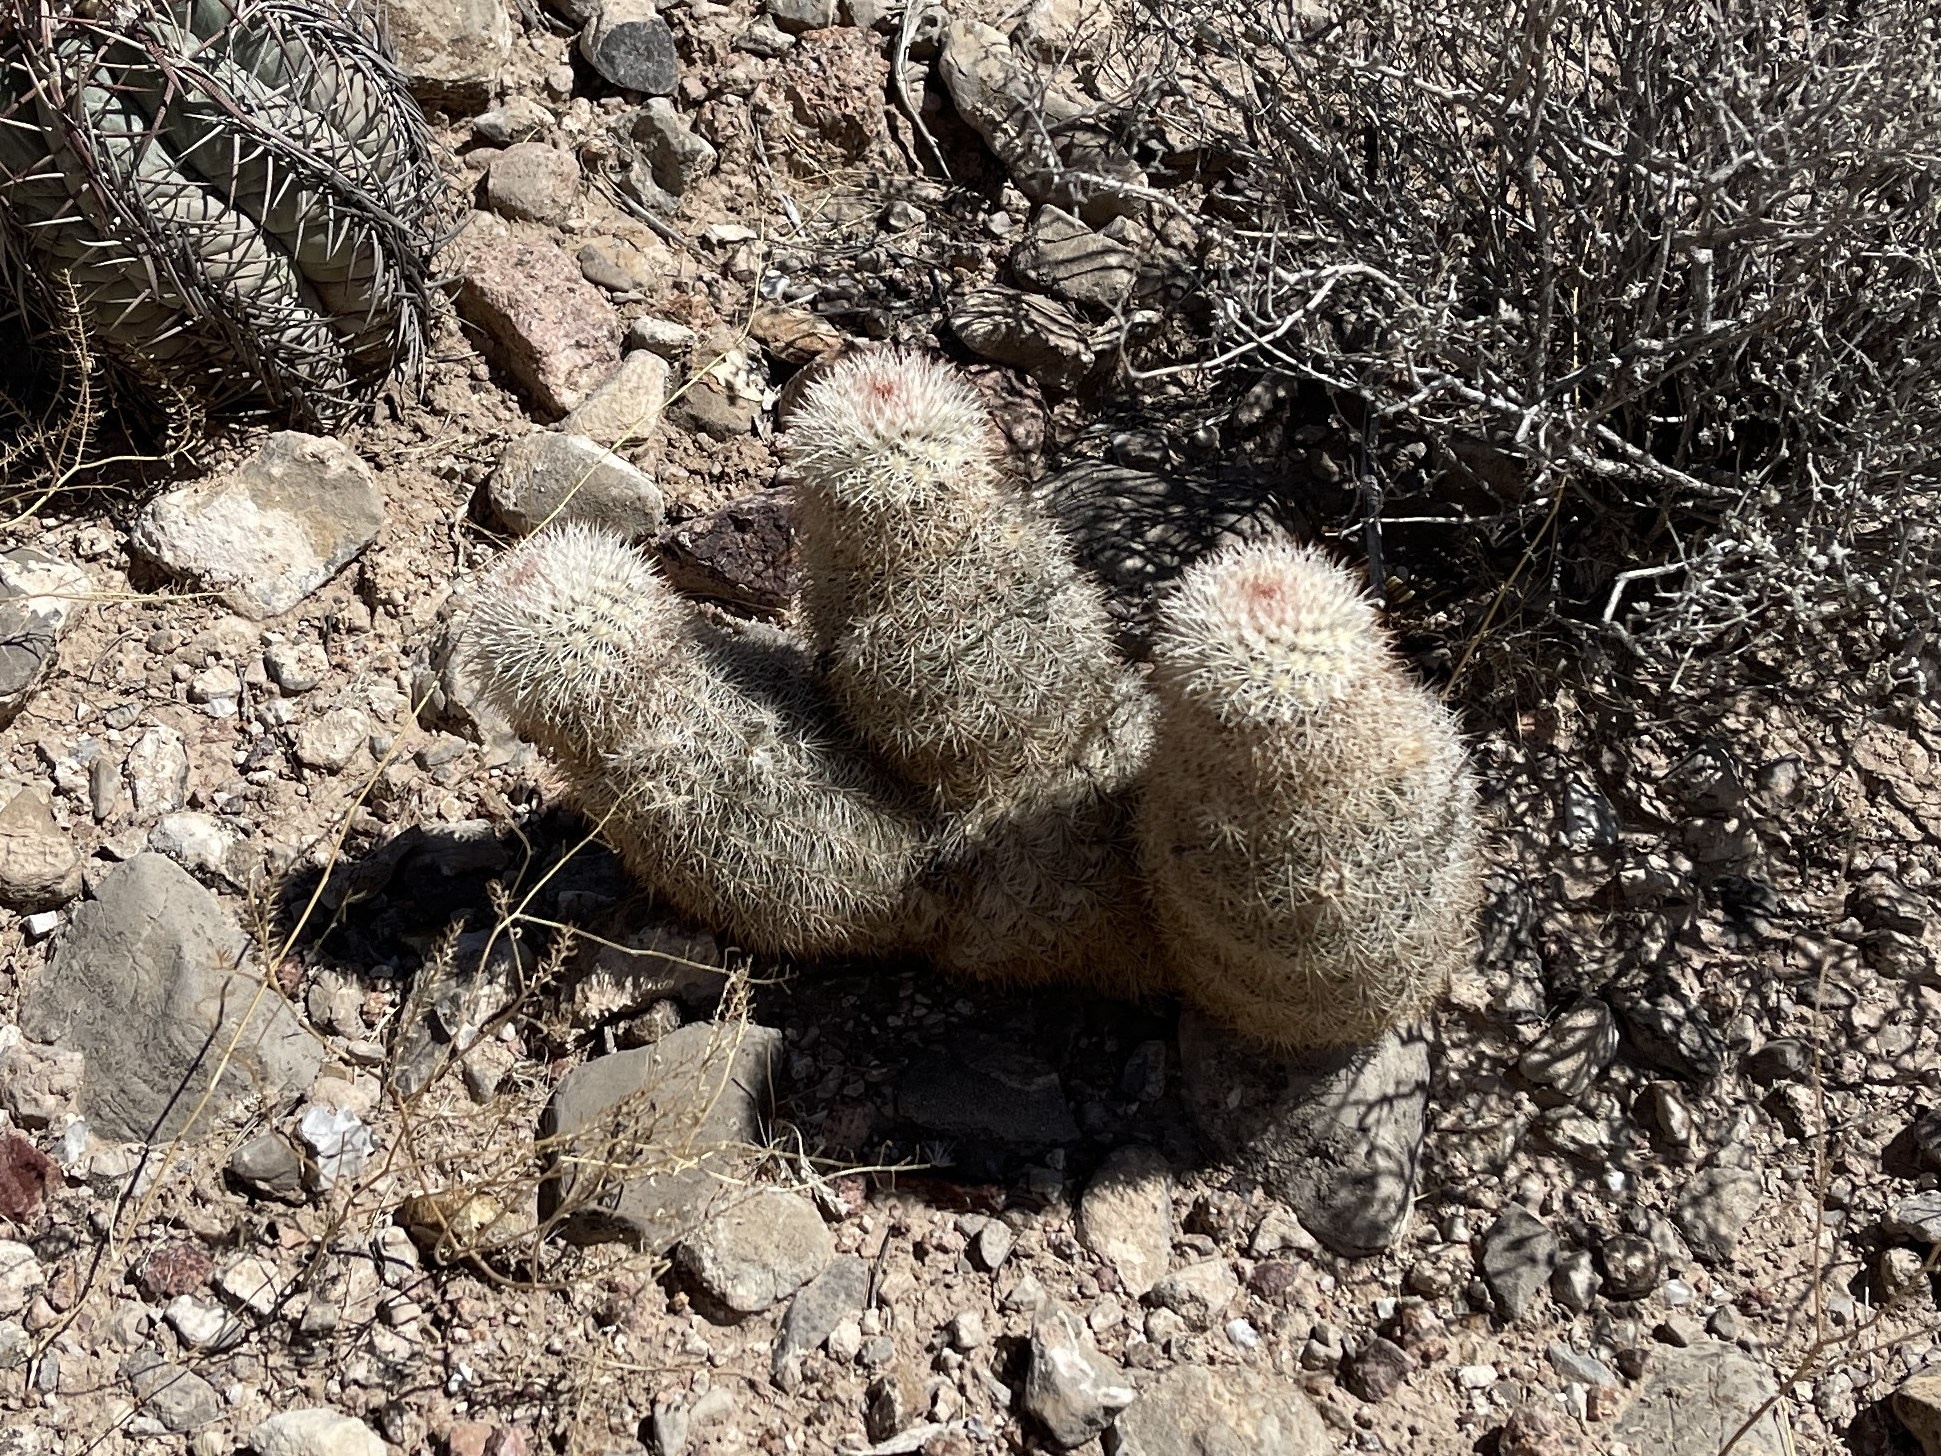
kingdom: Plantae
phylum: Tracheophyta
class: Magnoliopsida
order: Caryophyllales
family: Cactaceae
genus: Echinocereus
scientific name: Echinocereus dasyacanthus
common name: Spiny hedgehog cactus
